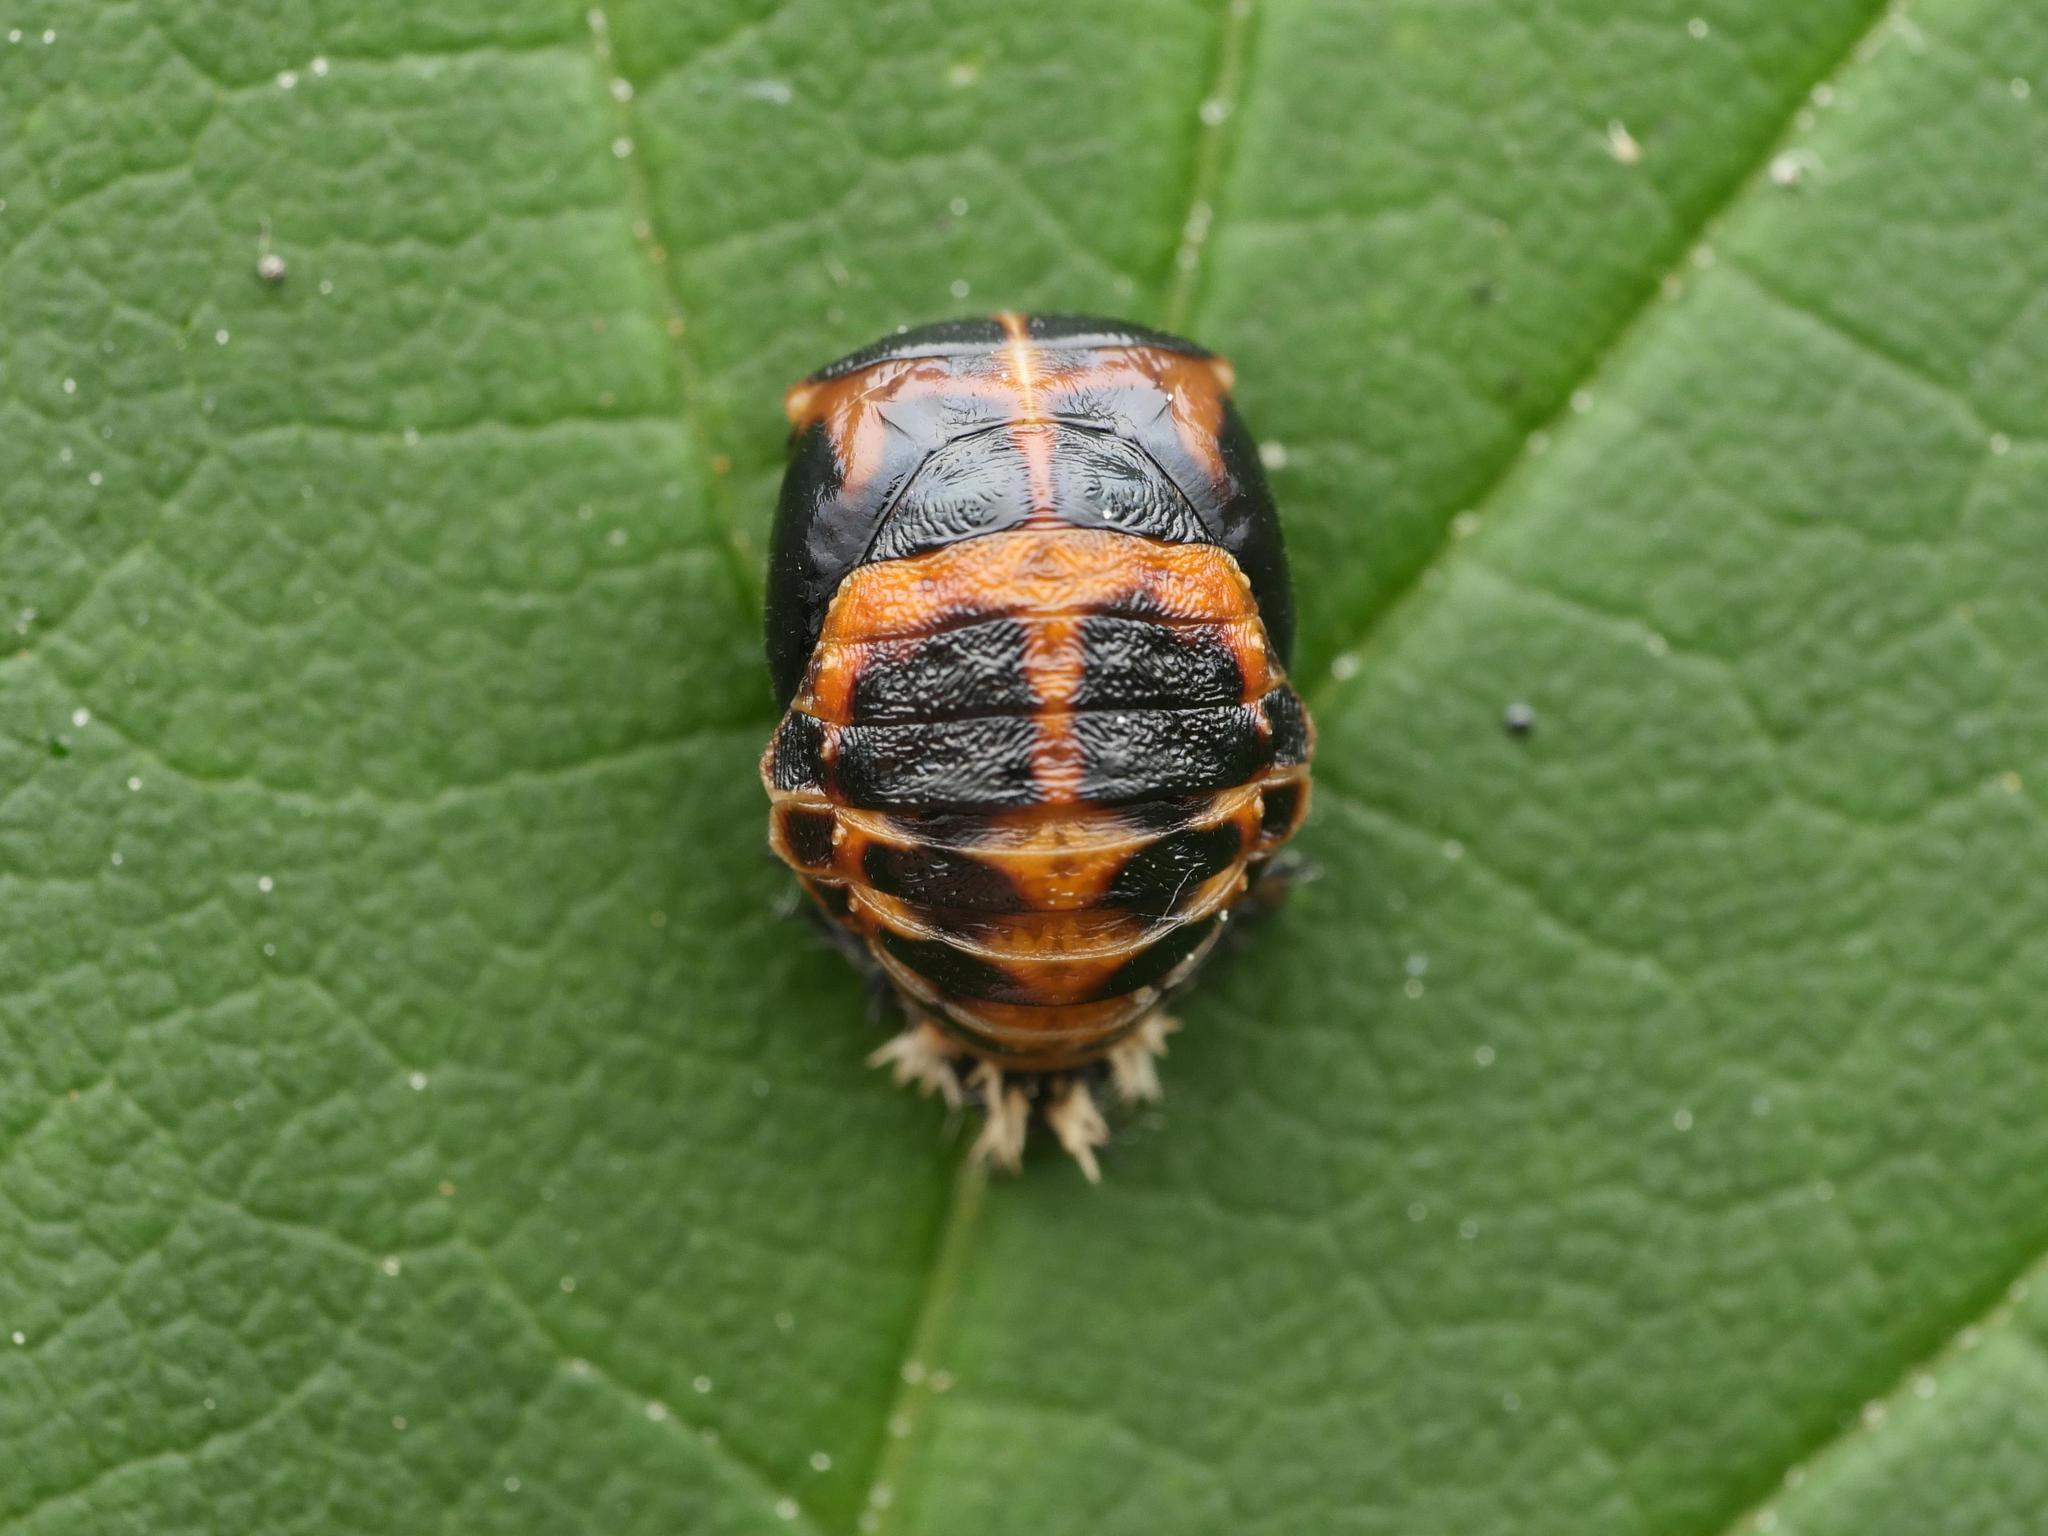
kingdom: Animalia
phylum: Arthropoda
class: Insecta
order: Coleoptera
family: Coccinellidae
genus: Harmonia
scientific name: Harmonia axyridis
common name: Harlequin ladybird
